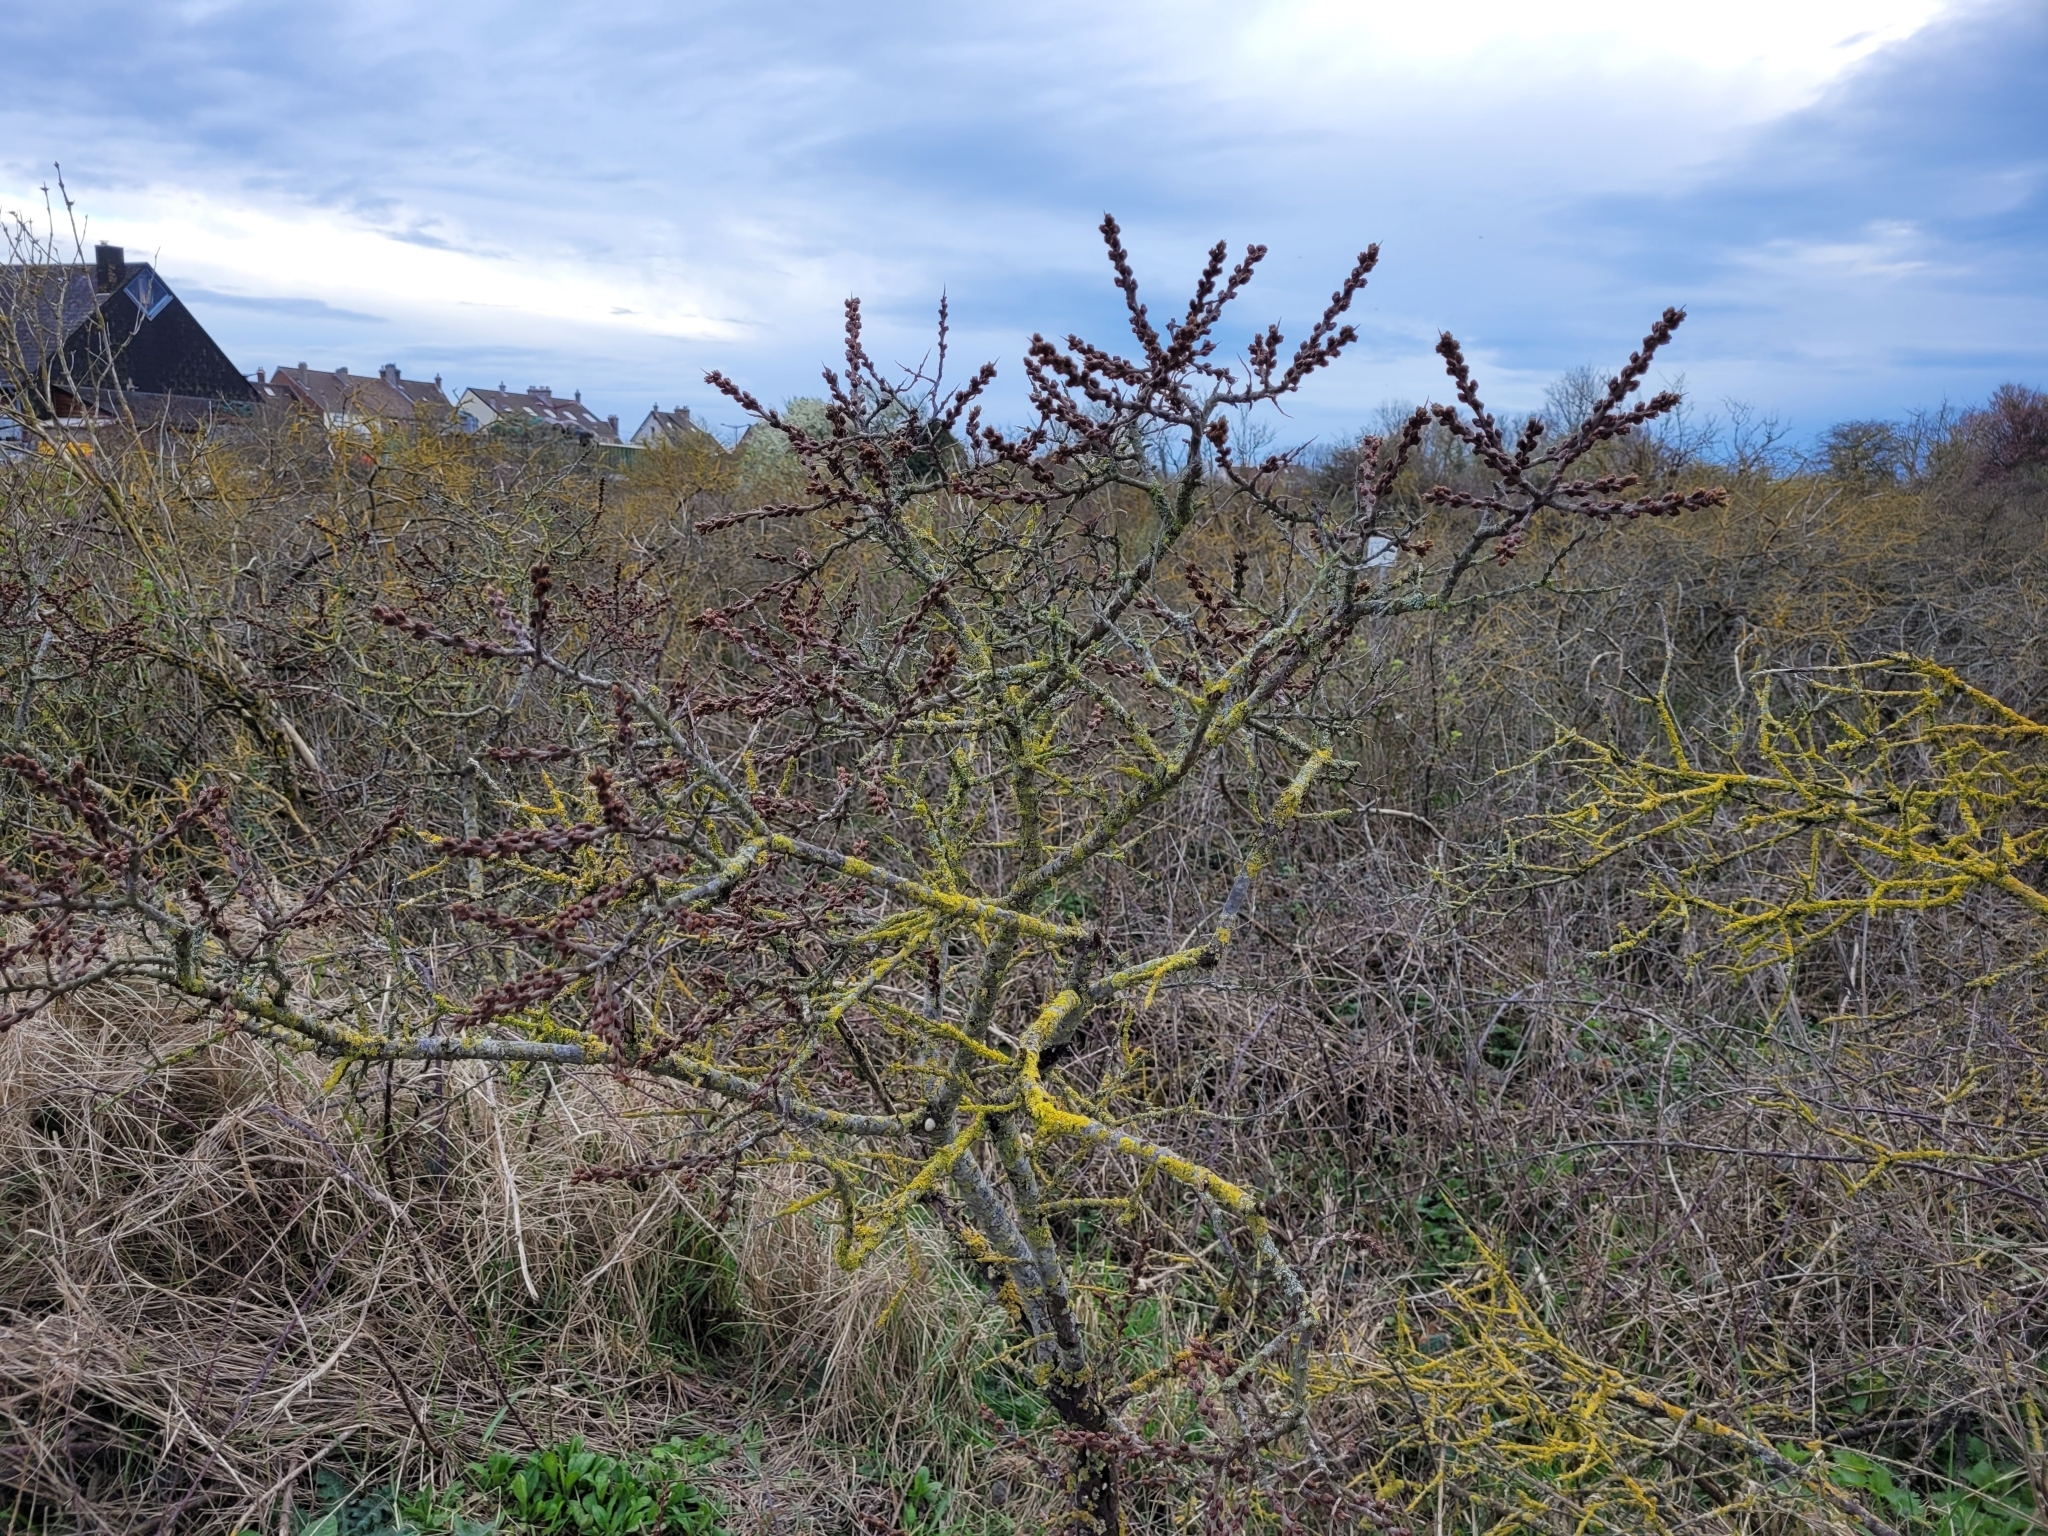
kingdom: Plantae
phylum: Tracheophyta
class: Magnoliopsida
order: Rosales
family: Elaeagnaceae
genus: Hippophae
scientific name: Hippophae rhamnoides
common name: Sea-buckthorn
